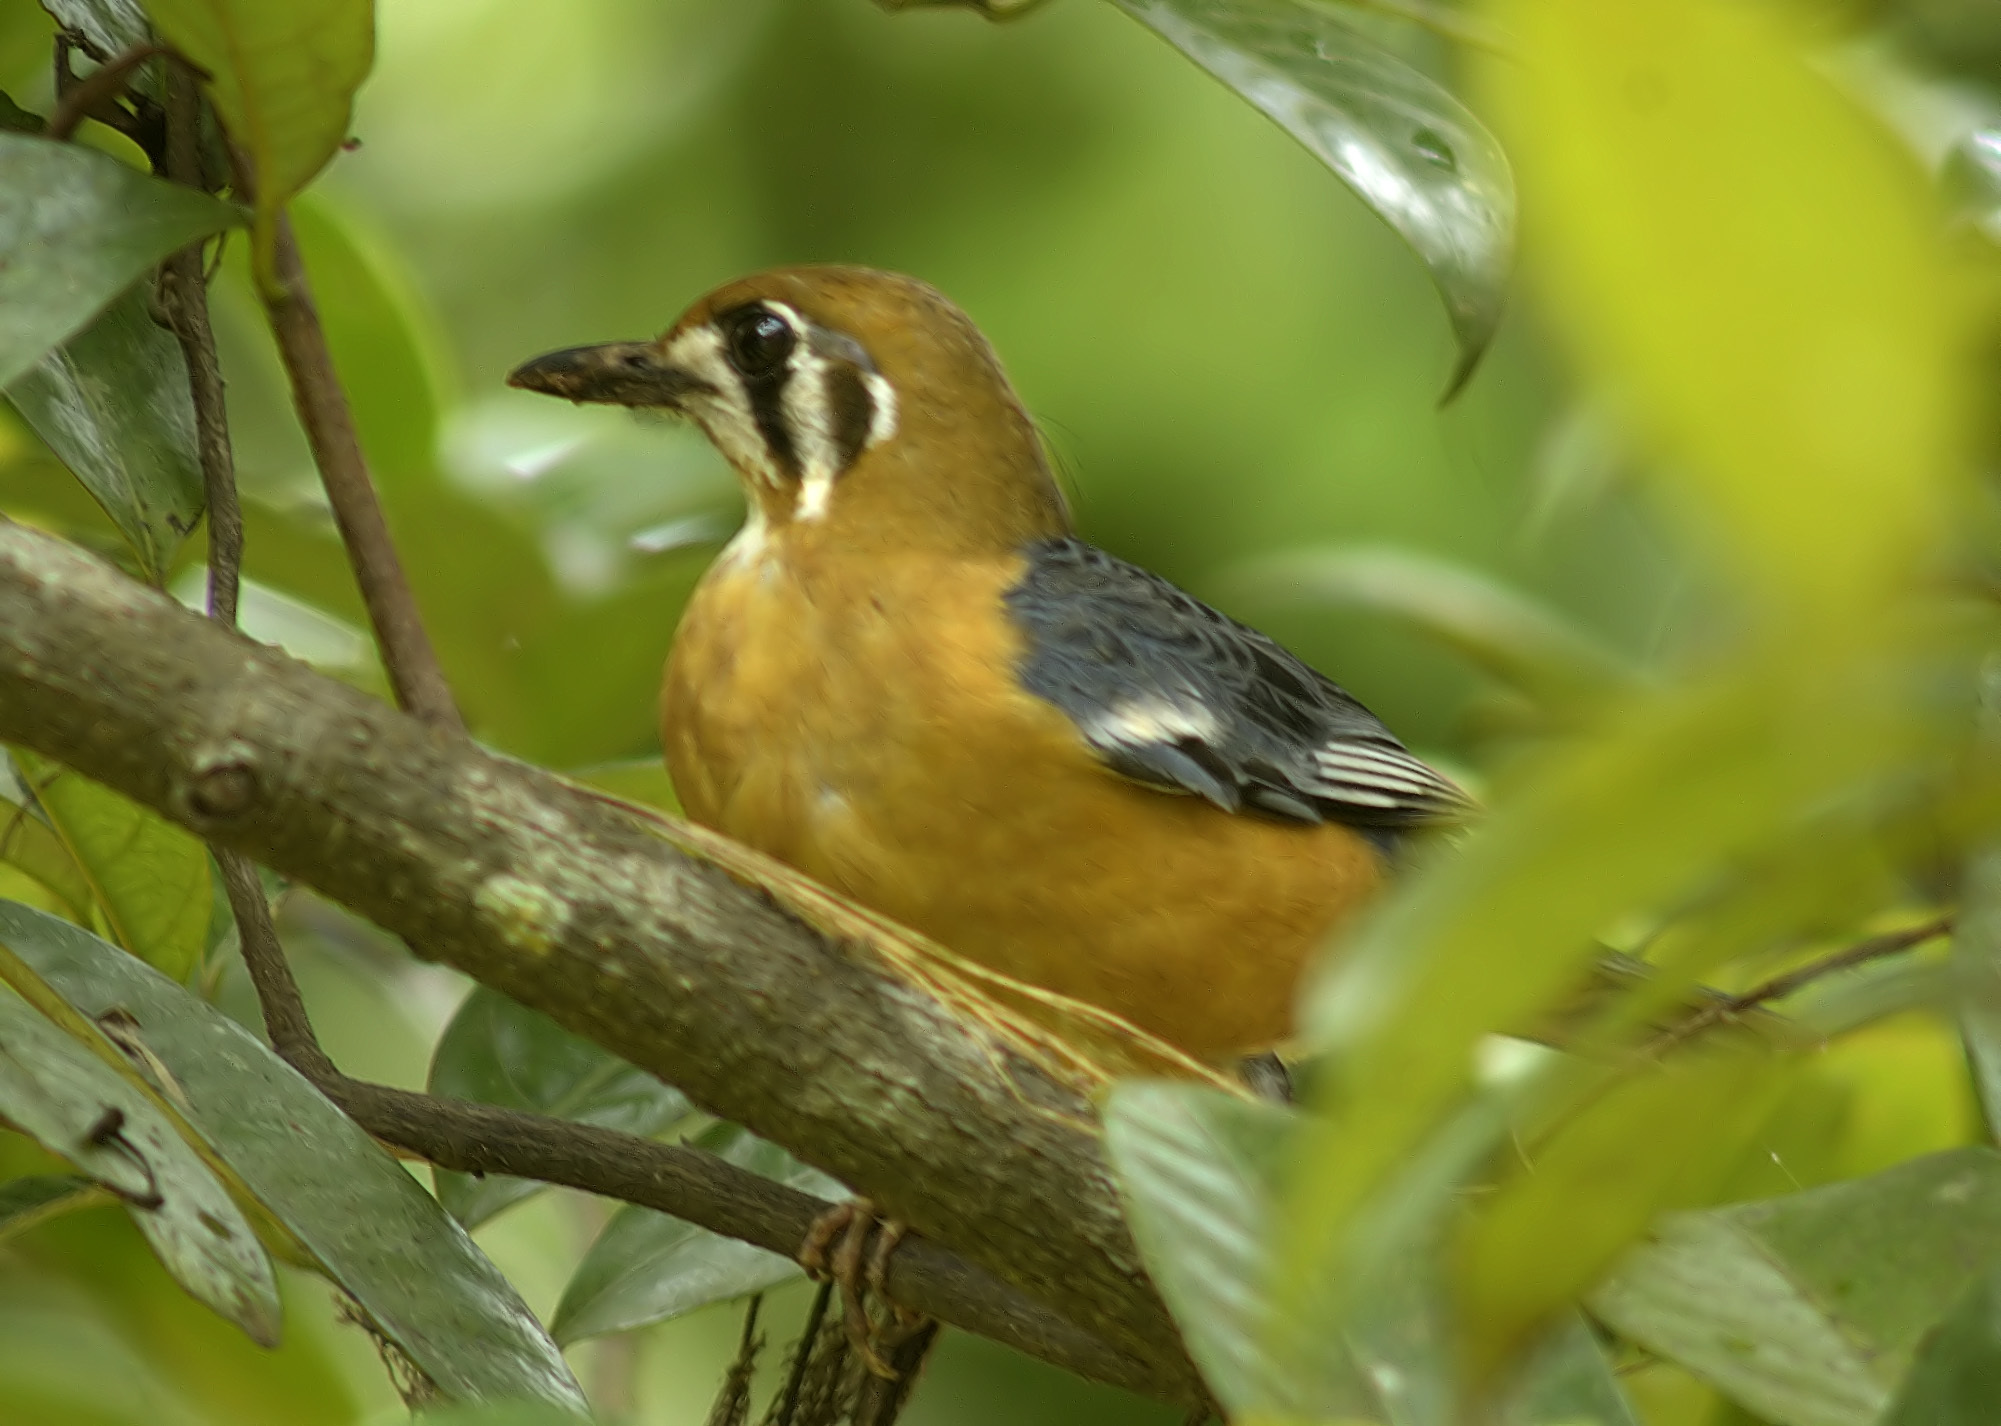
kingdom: Animalia
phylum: Chordata
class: Aves
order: Passeriformes
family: Turdidae
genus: Geokichla
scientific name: Geokichla citrina
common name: Orange-headed thrush
